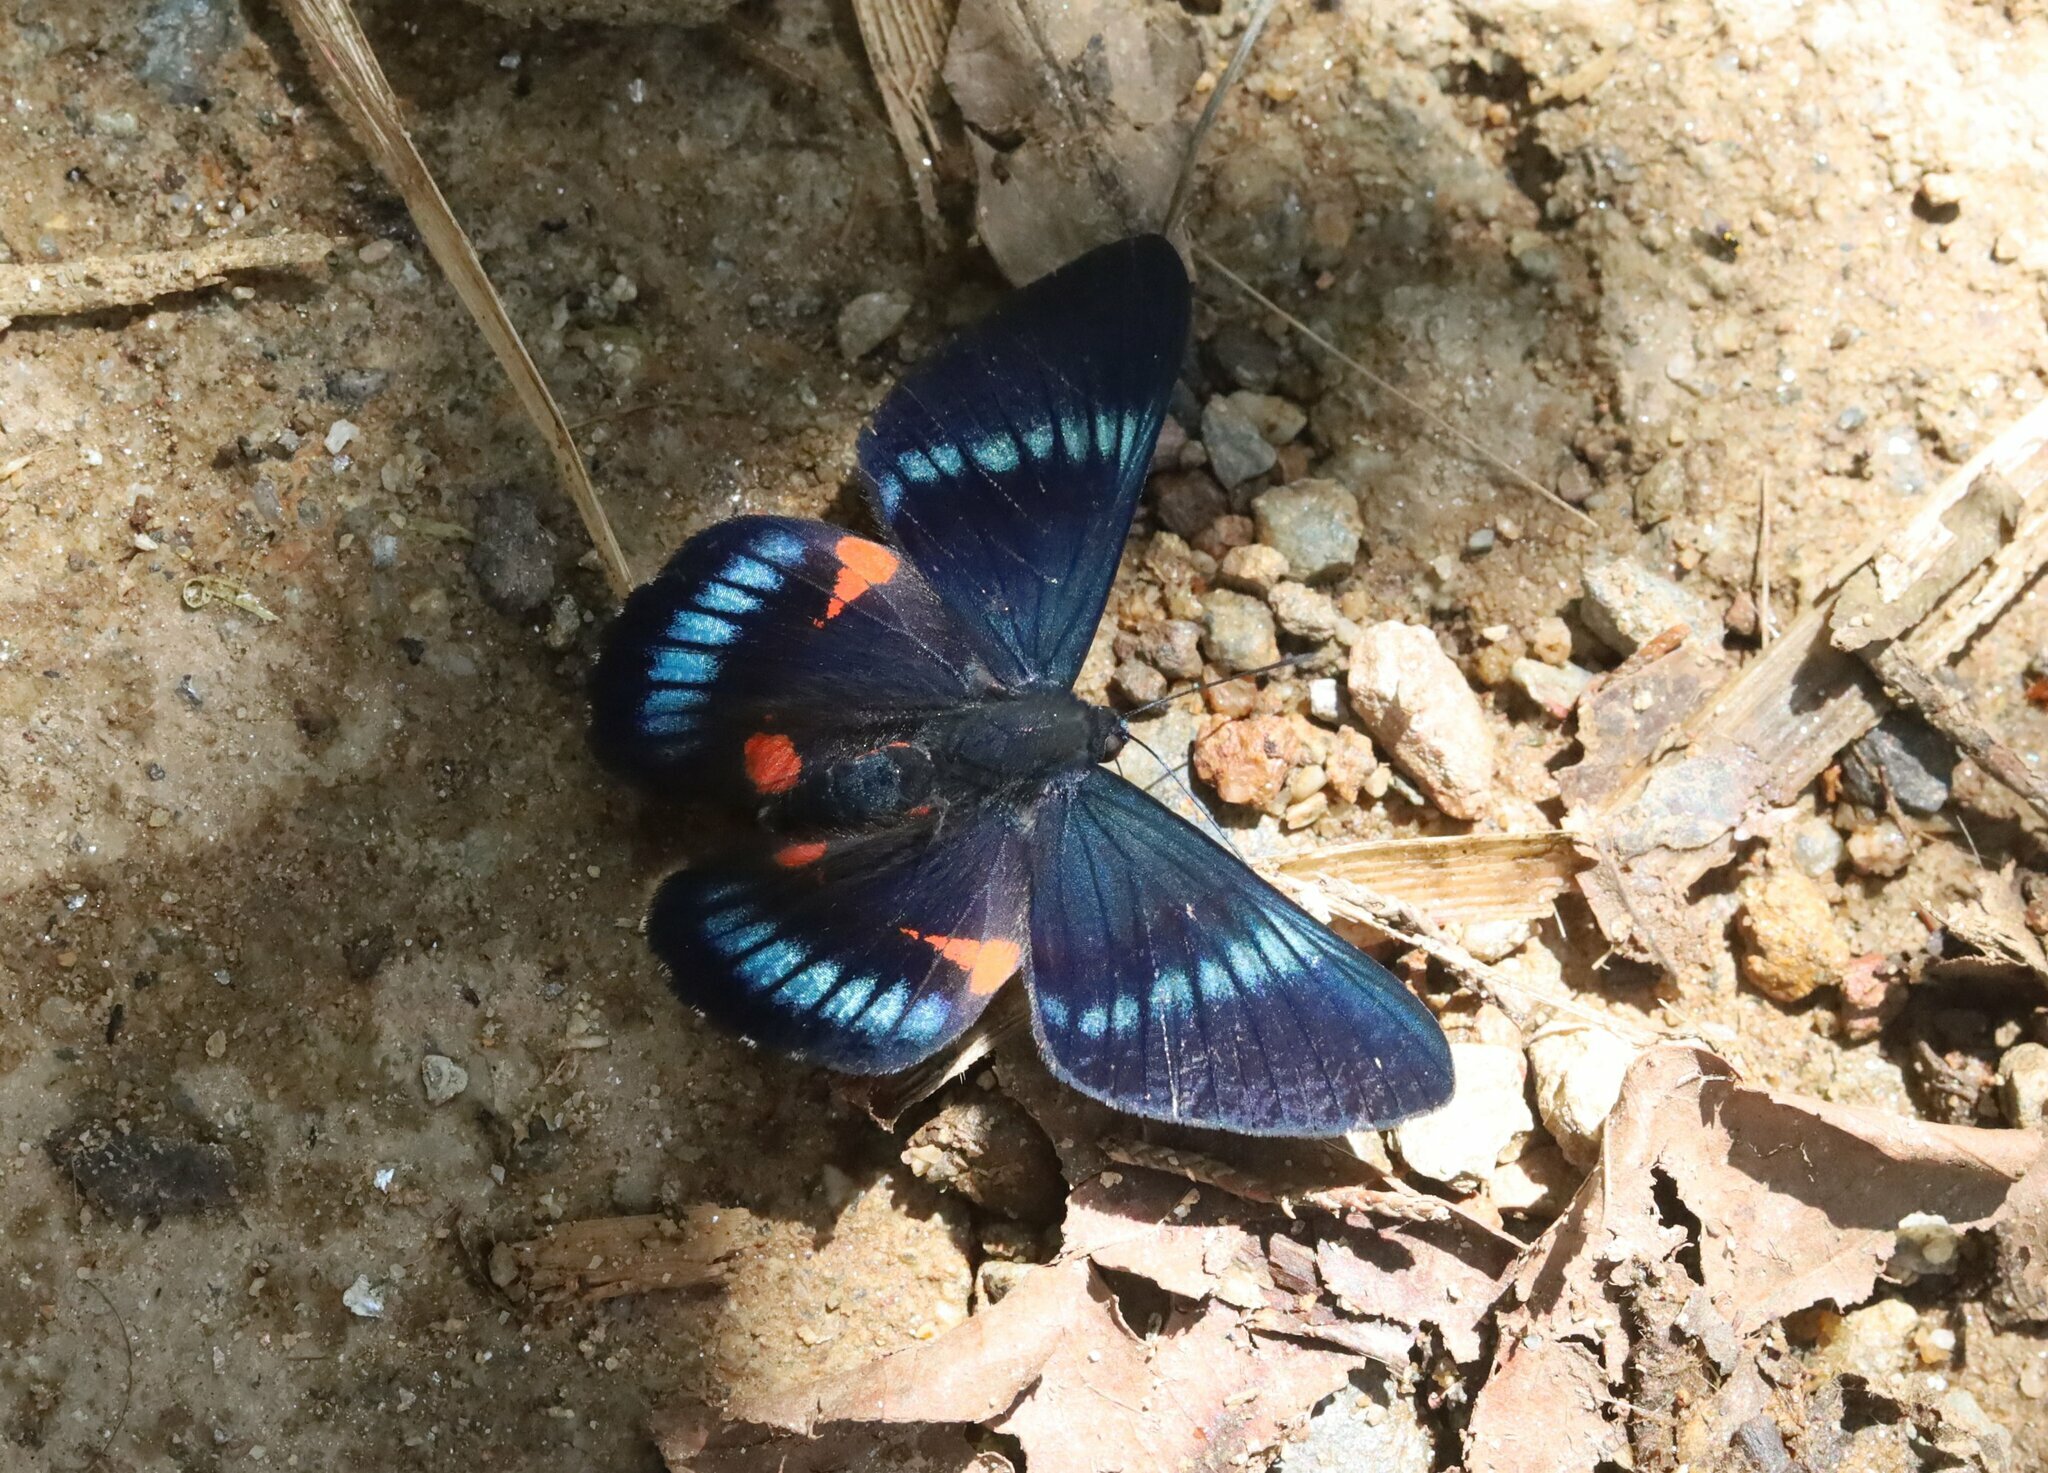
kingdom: Animalia
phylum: Arthropoda
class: Insecta
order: Lepidoptera
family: Lycaenidae
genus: Necyria
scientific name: Necyria bellona
